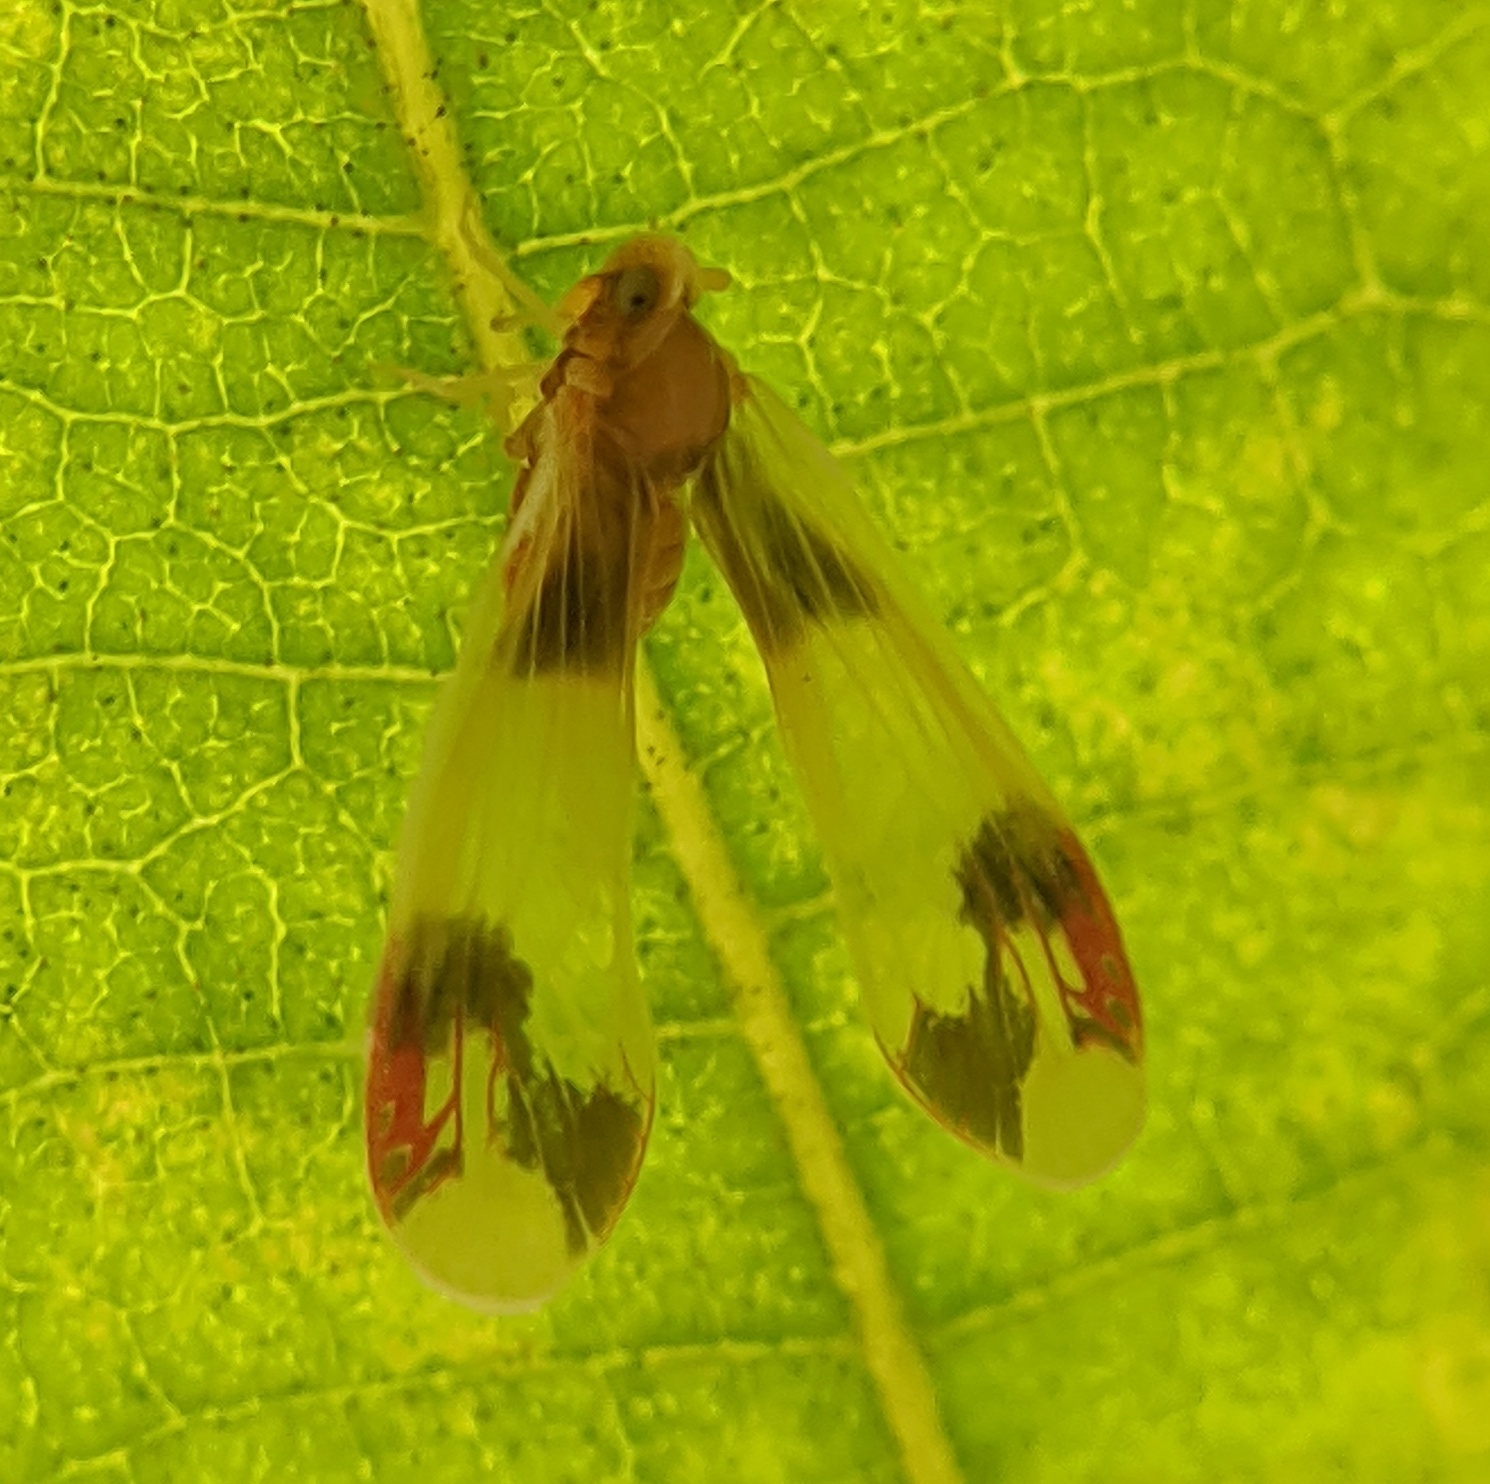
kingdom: Animalia
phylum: Arthropoda
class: Insecta
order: Hemiptera
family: Derbidae
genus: Anotia
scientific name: Anotia uhleri
